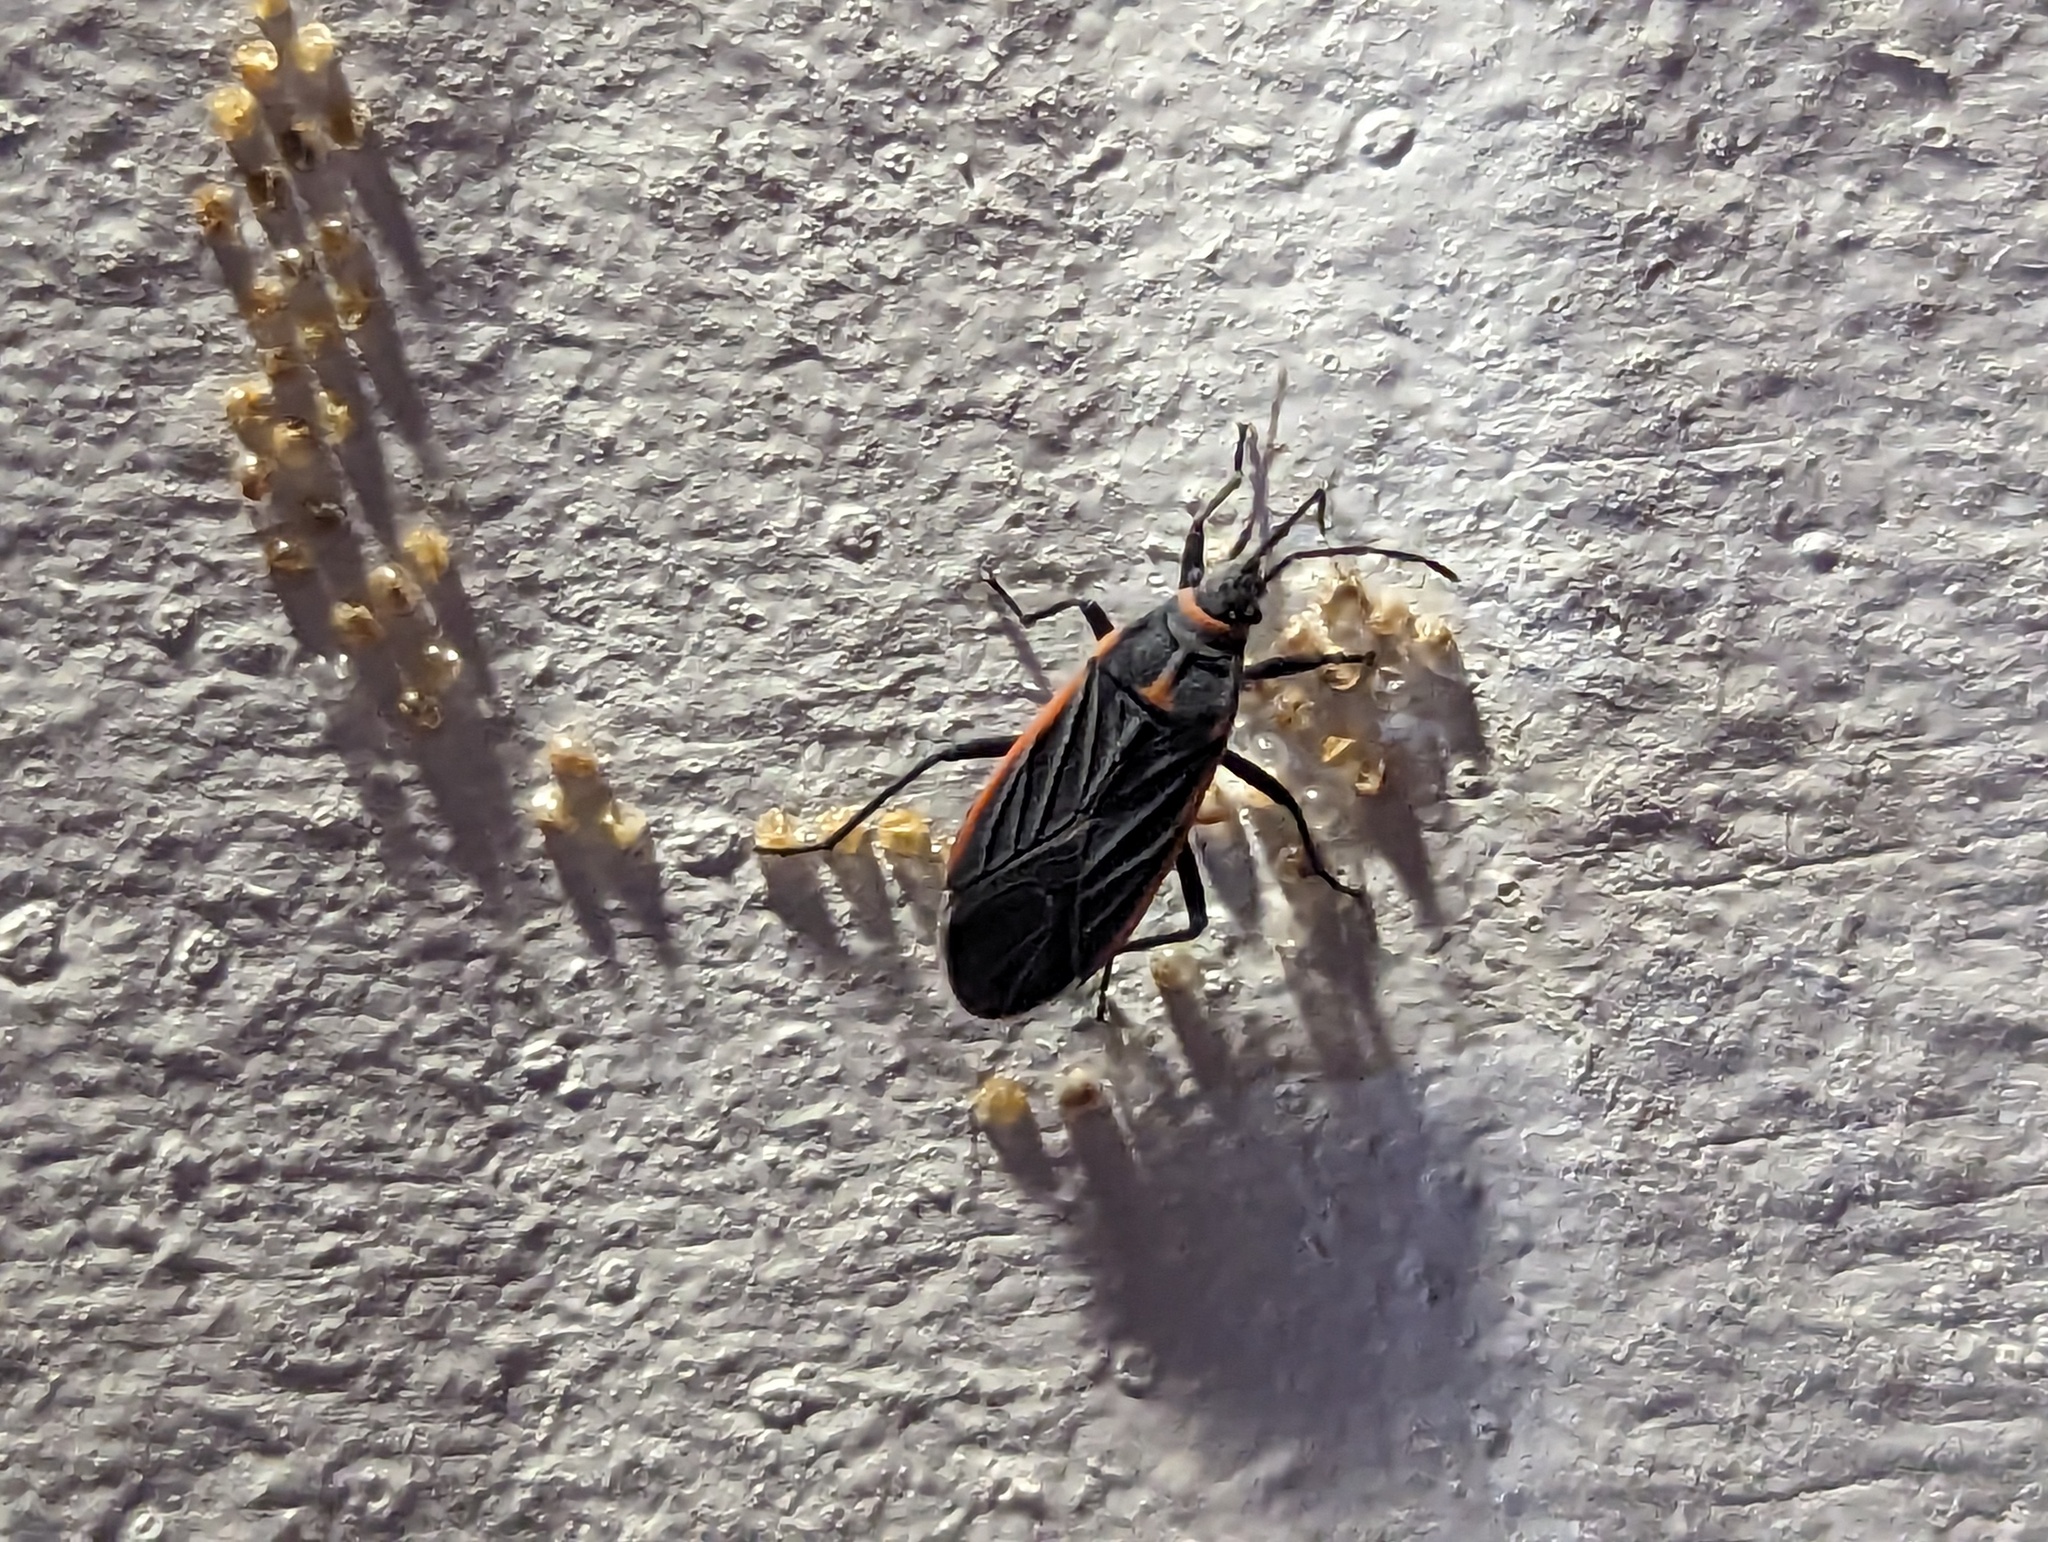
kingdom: Animalia
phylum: Arthropoda
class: Insecta
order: Hemiptera
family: Lygaeidae
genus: Melacoryphus
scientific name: Melacoryphus lateralis
